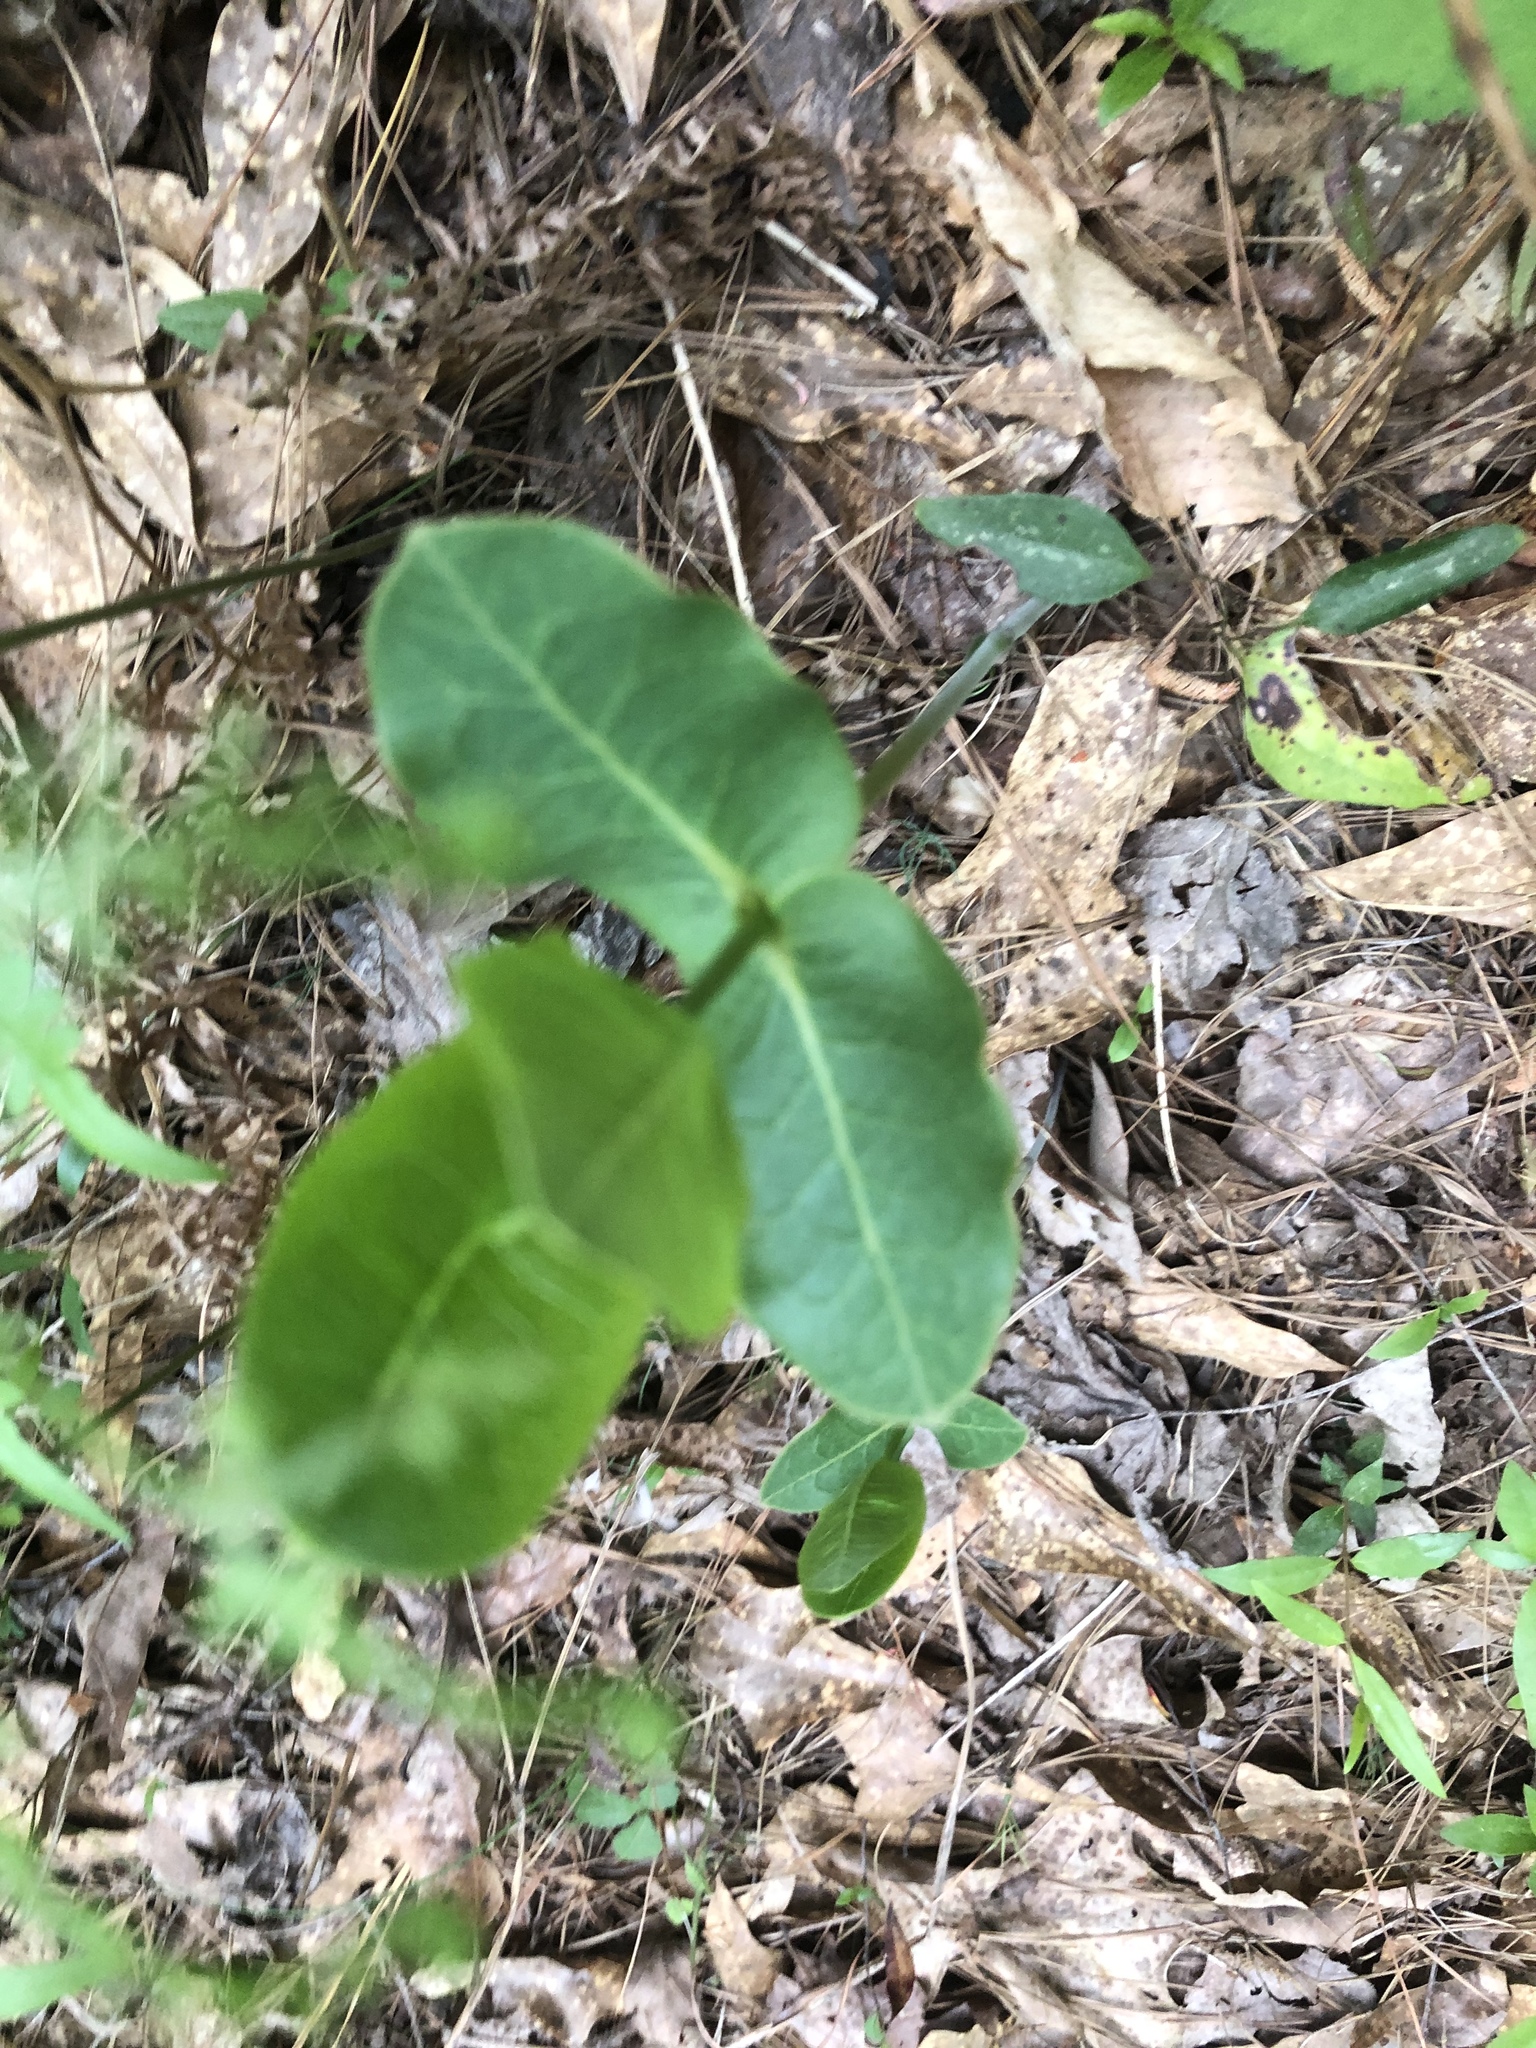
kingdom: Plantae
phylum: Tracheophyta
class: Magnoliopsida
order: Gentianales
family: Apocynaceae
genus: Asclepias
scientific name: Asclepias amplexicaulis
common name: Blunt-leaf milkweed
